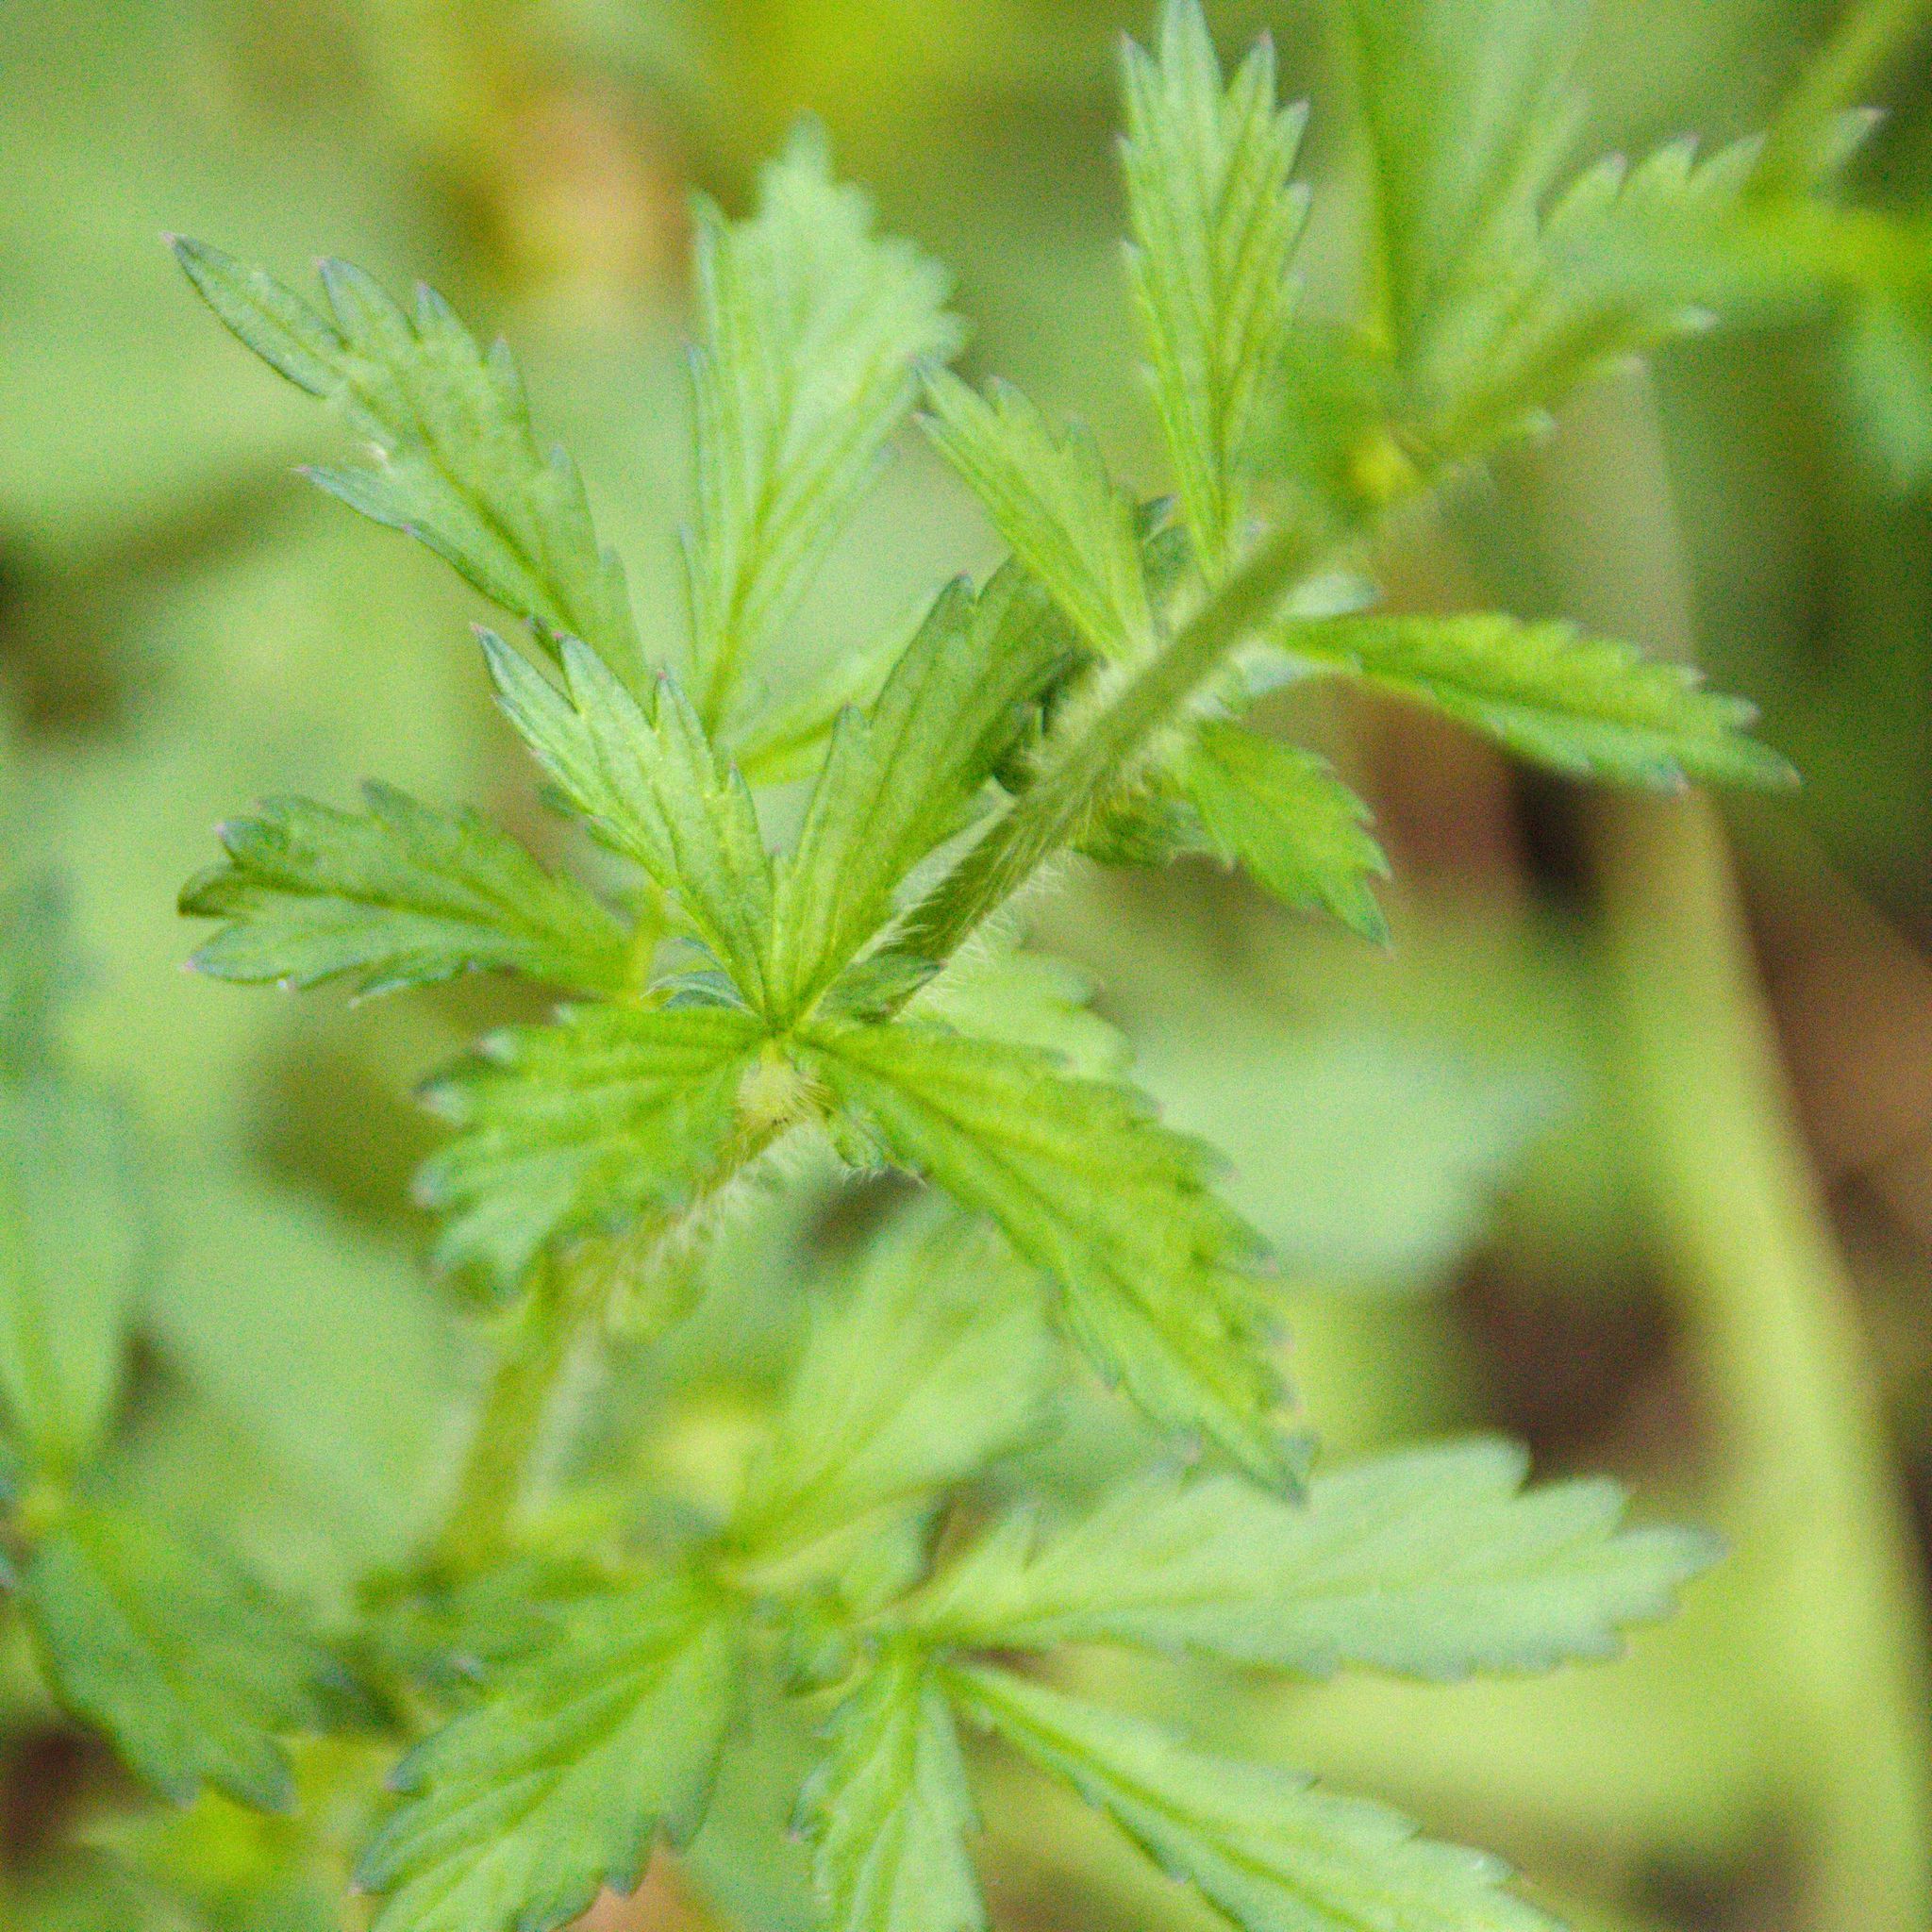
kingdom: Plantae
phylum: Tracheophyta
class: Magnoliopsida
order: Rosales
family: Rosaceae
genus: Agrimonia
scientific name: Agrimonia pilosa
